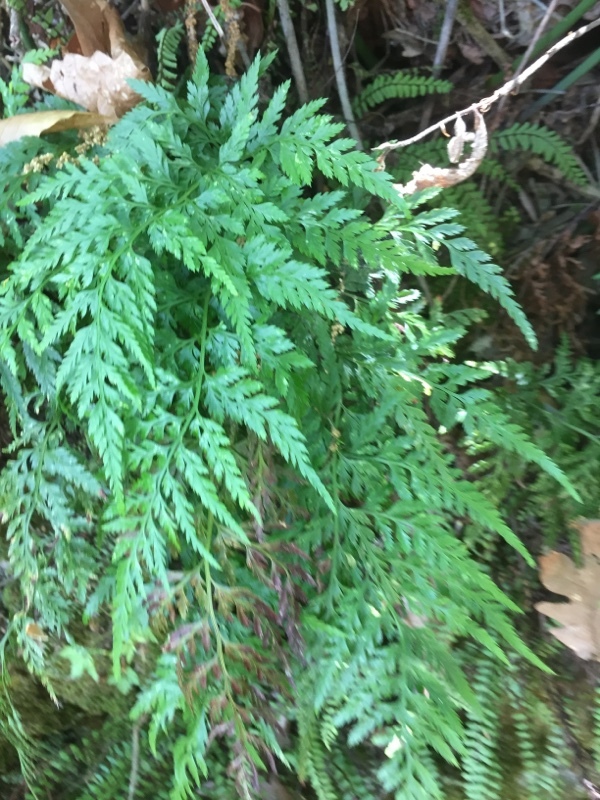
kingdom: Plantae
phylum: Tracheophyta
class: Polypodiopsida
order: Polypodiales
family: Aspleniaceae
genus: Asplenium
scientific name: Asplenium onopteris
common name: Irish spleenwort
